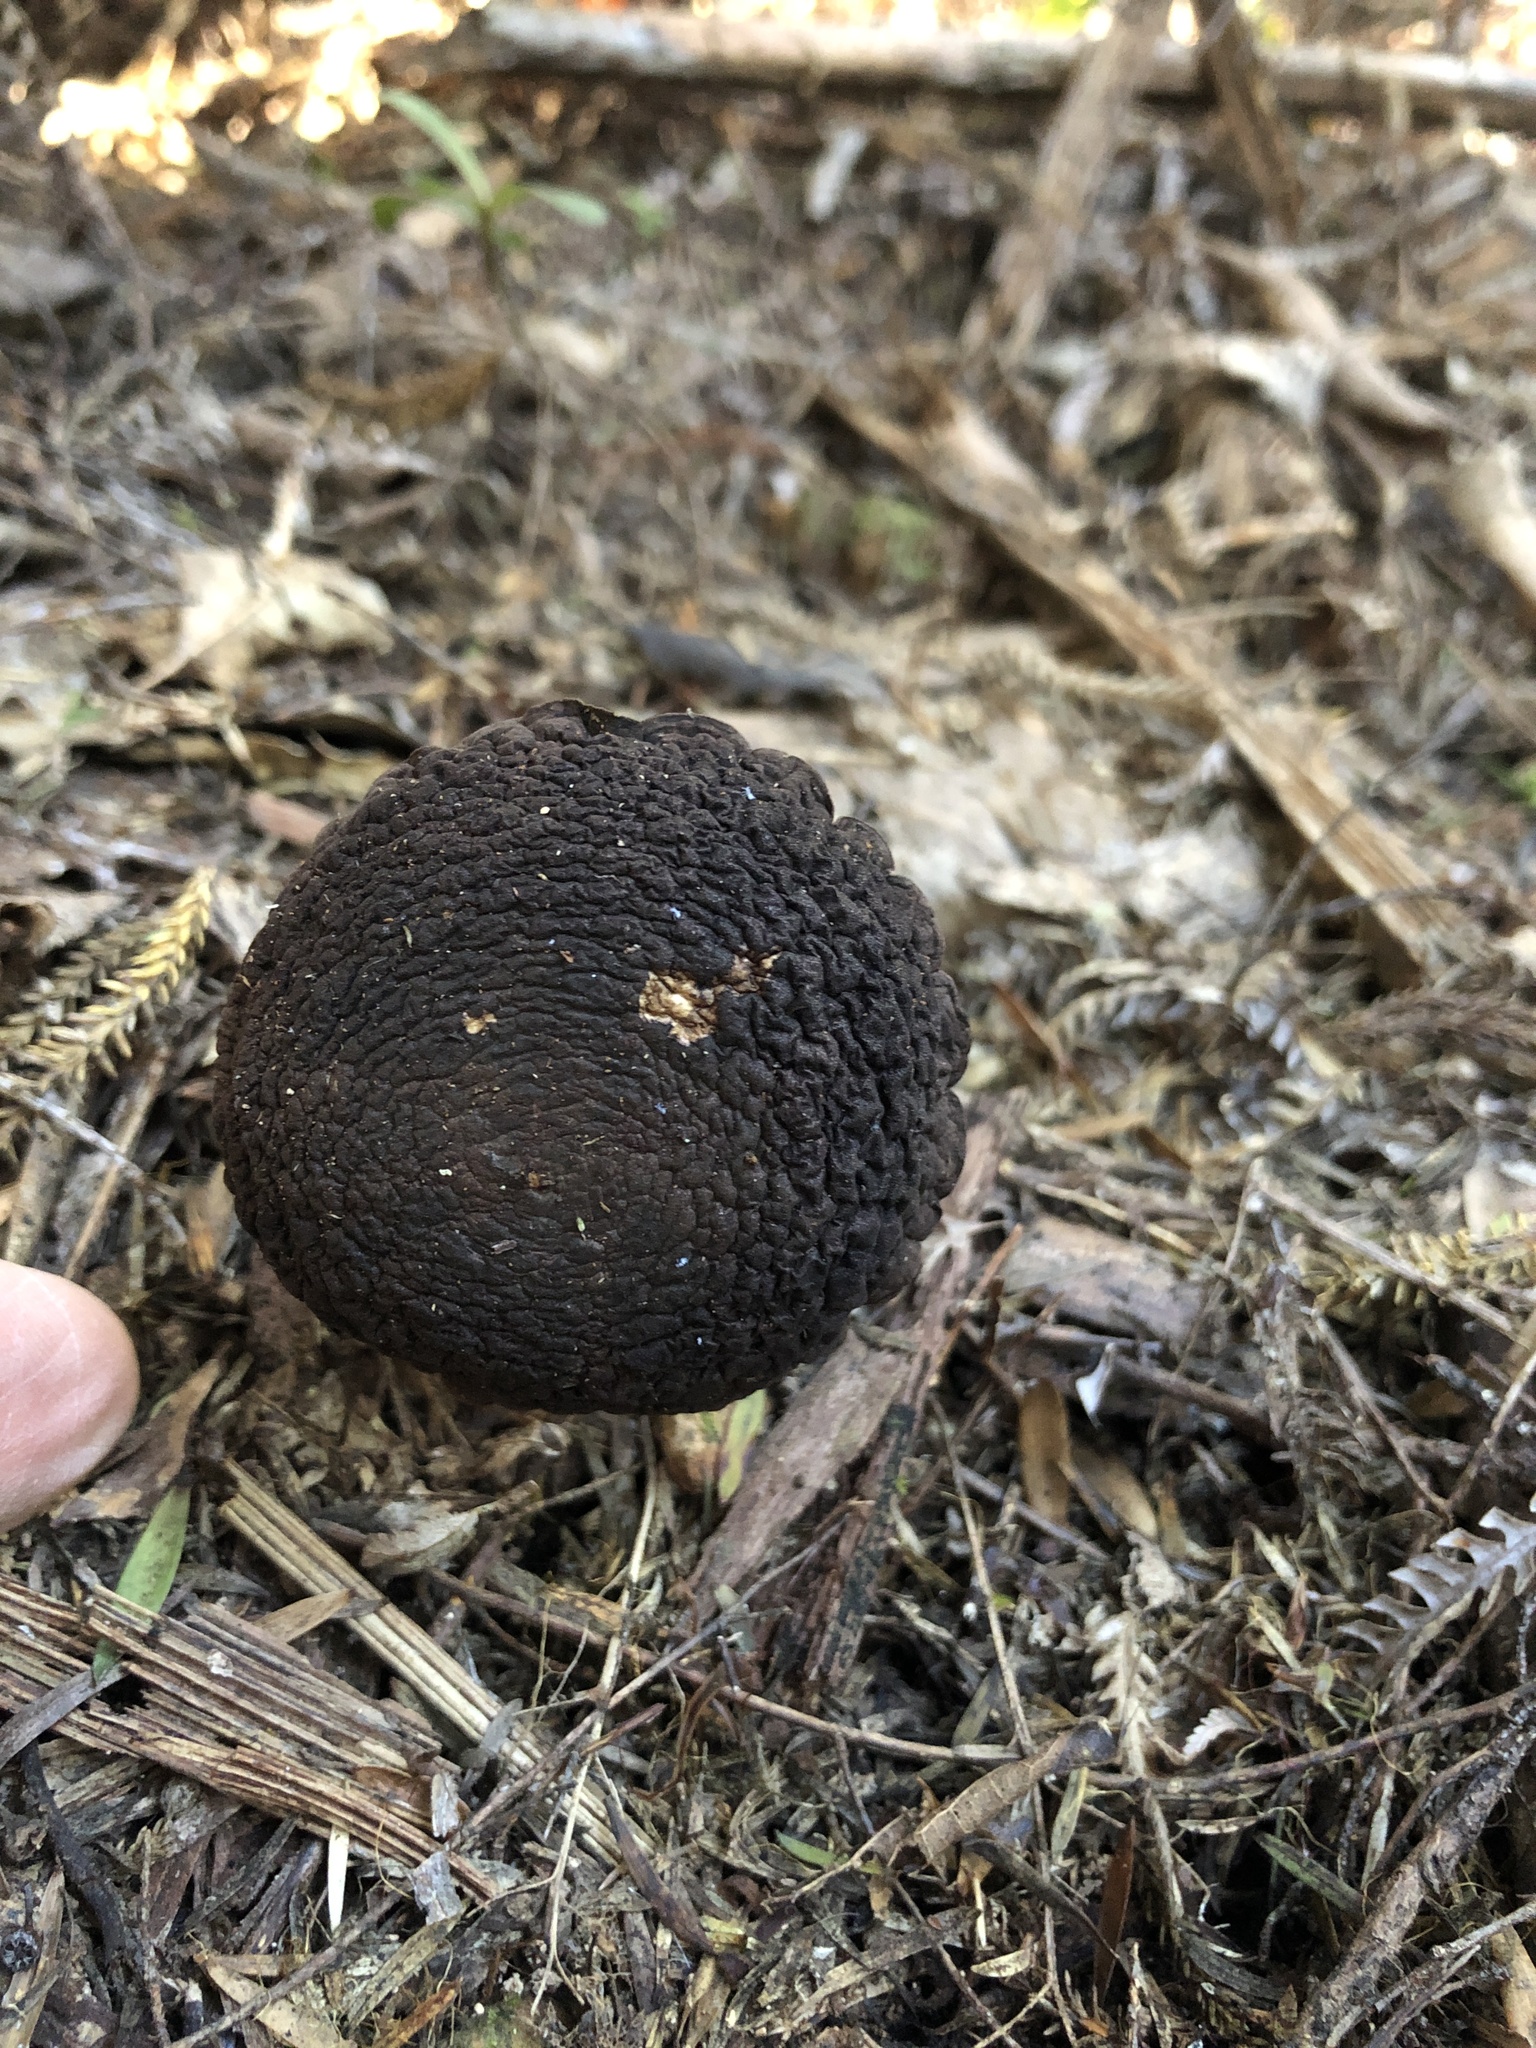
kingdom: Fungi
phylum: Basidiomycota
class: Agaricomycetes
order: Boletales
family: Boletaceae
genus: Porphyrellus
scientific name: Porphyrellus formosus
